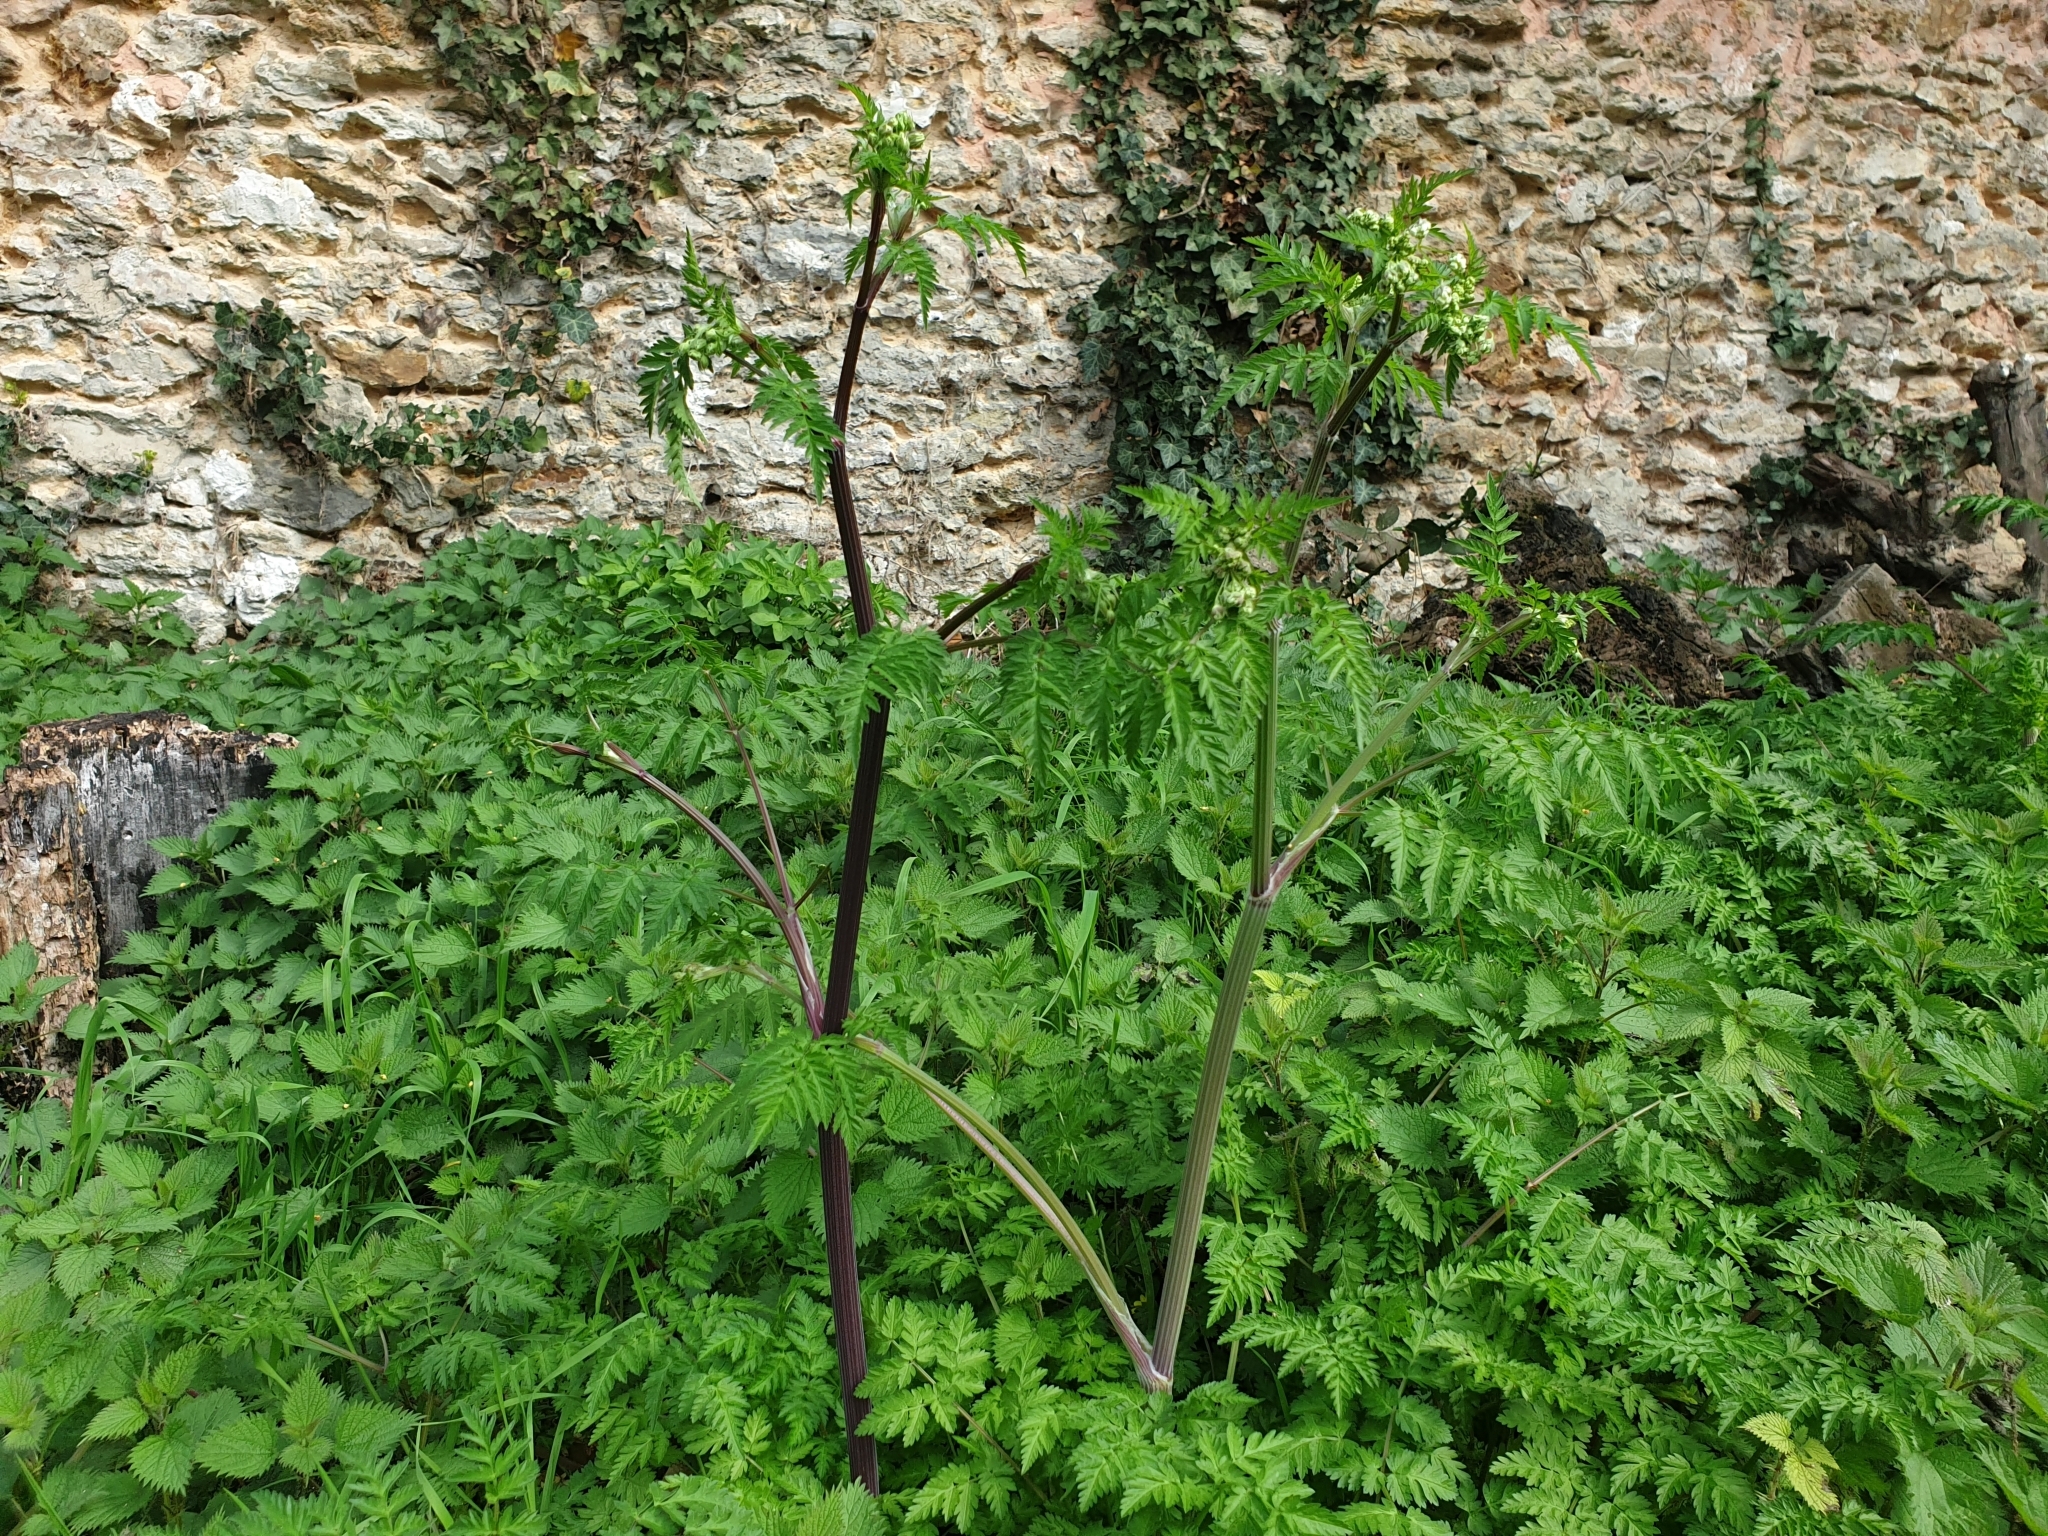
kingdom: Plantae
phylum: Tracheophyta
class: Magnoliopsida
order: Apiales
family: Apiaceae
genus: Anthriscus
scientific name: Anthriscus sylvestris
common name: Cow parsley
